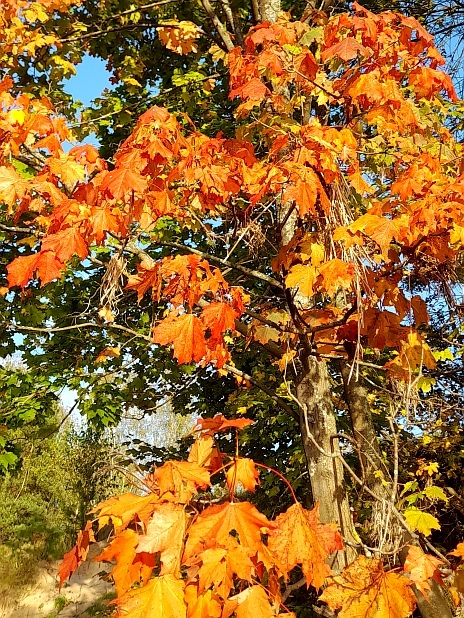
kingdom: Plantae
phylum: Tracheophyta
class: Magnoliopsida
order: Sapindales
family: Sapindaceae
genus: Acer
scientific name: Acer platanoides
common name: Norway maple
